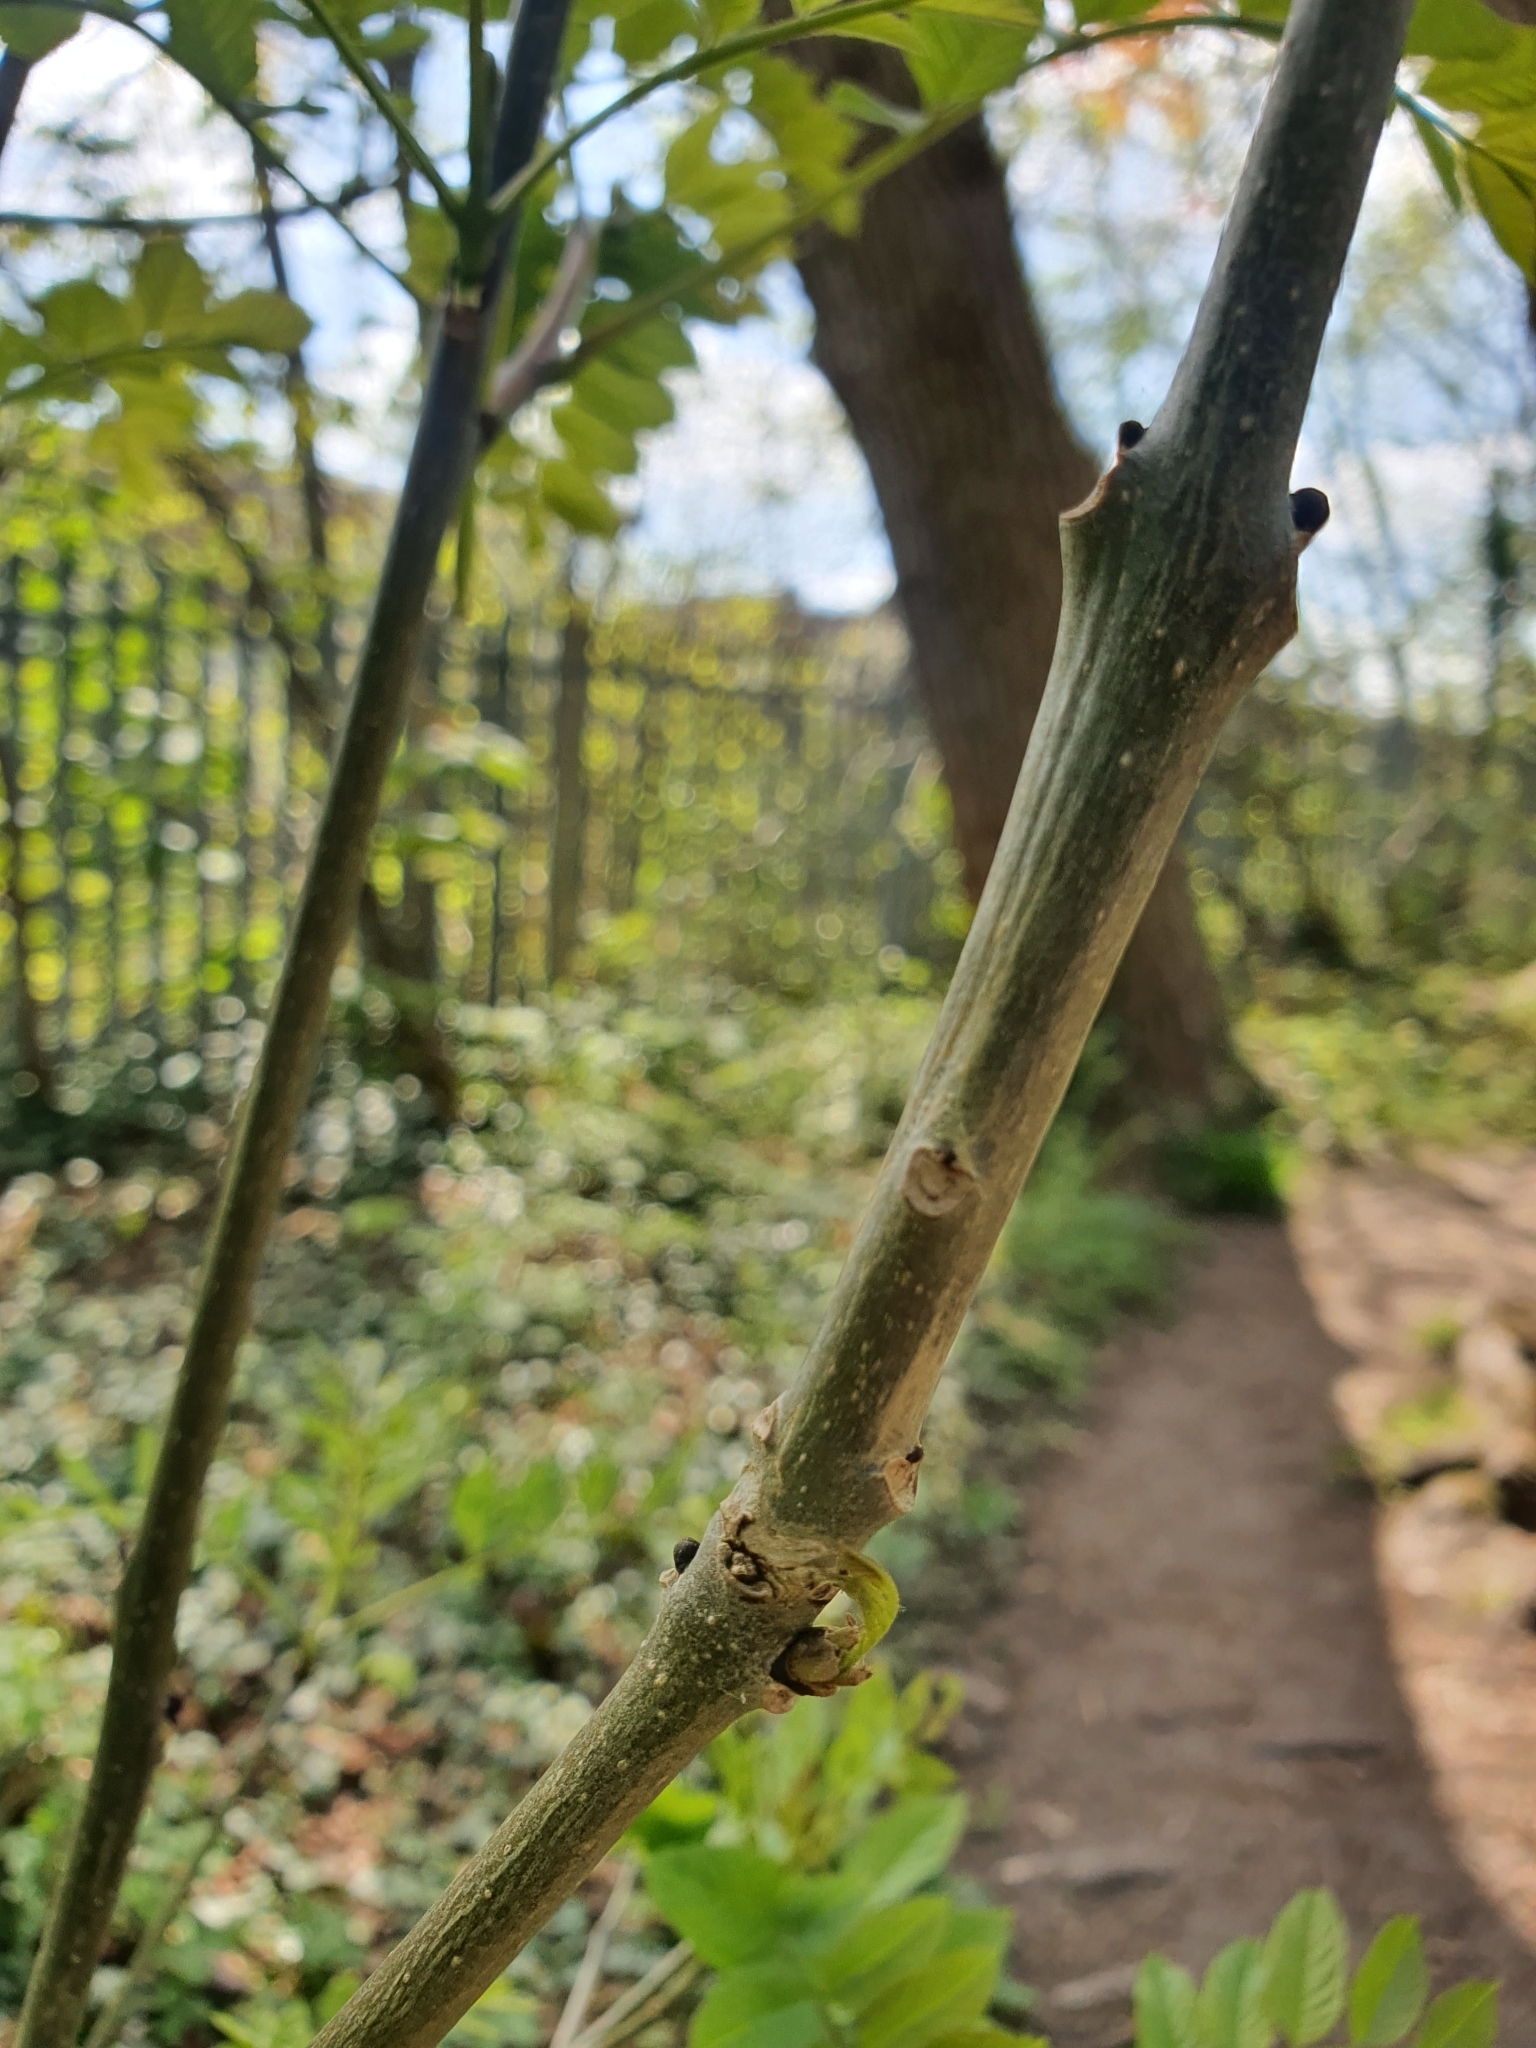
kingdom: Plantae
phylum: Tracheophyta
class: Magnoliopsida
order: Lamiales
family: Oleaceae
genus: Fraxinus
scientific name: Fraxinus excelsior
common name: European ash
